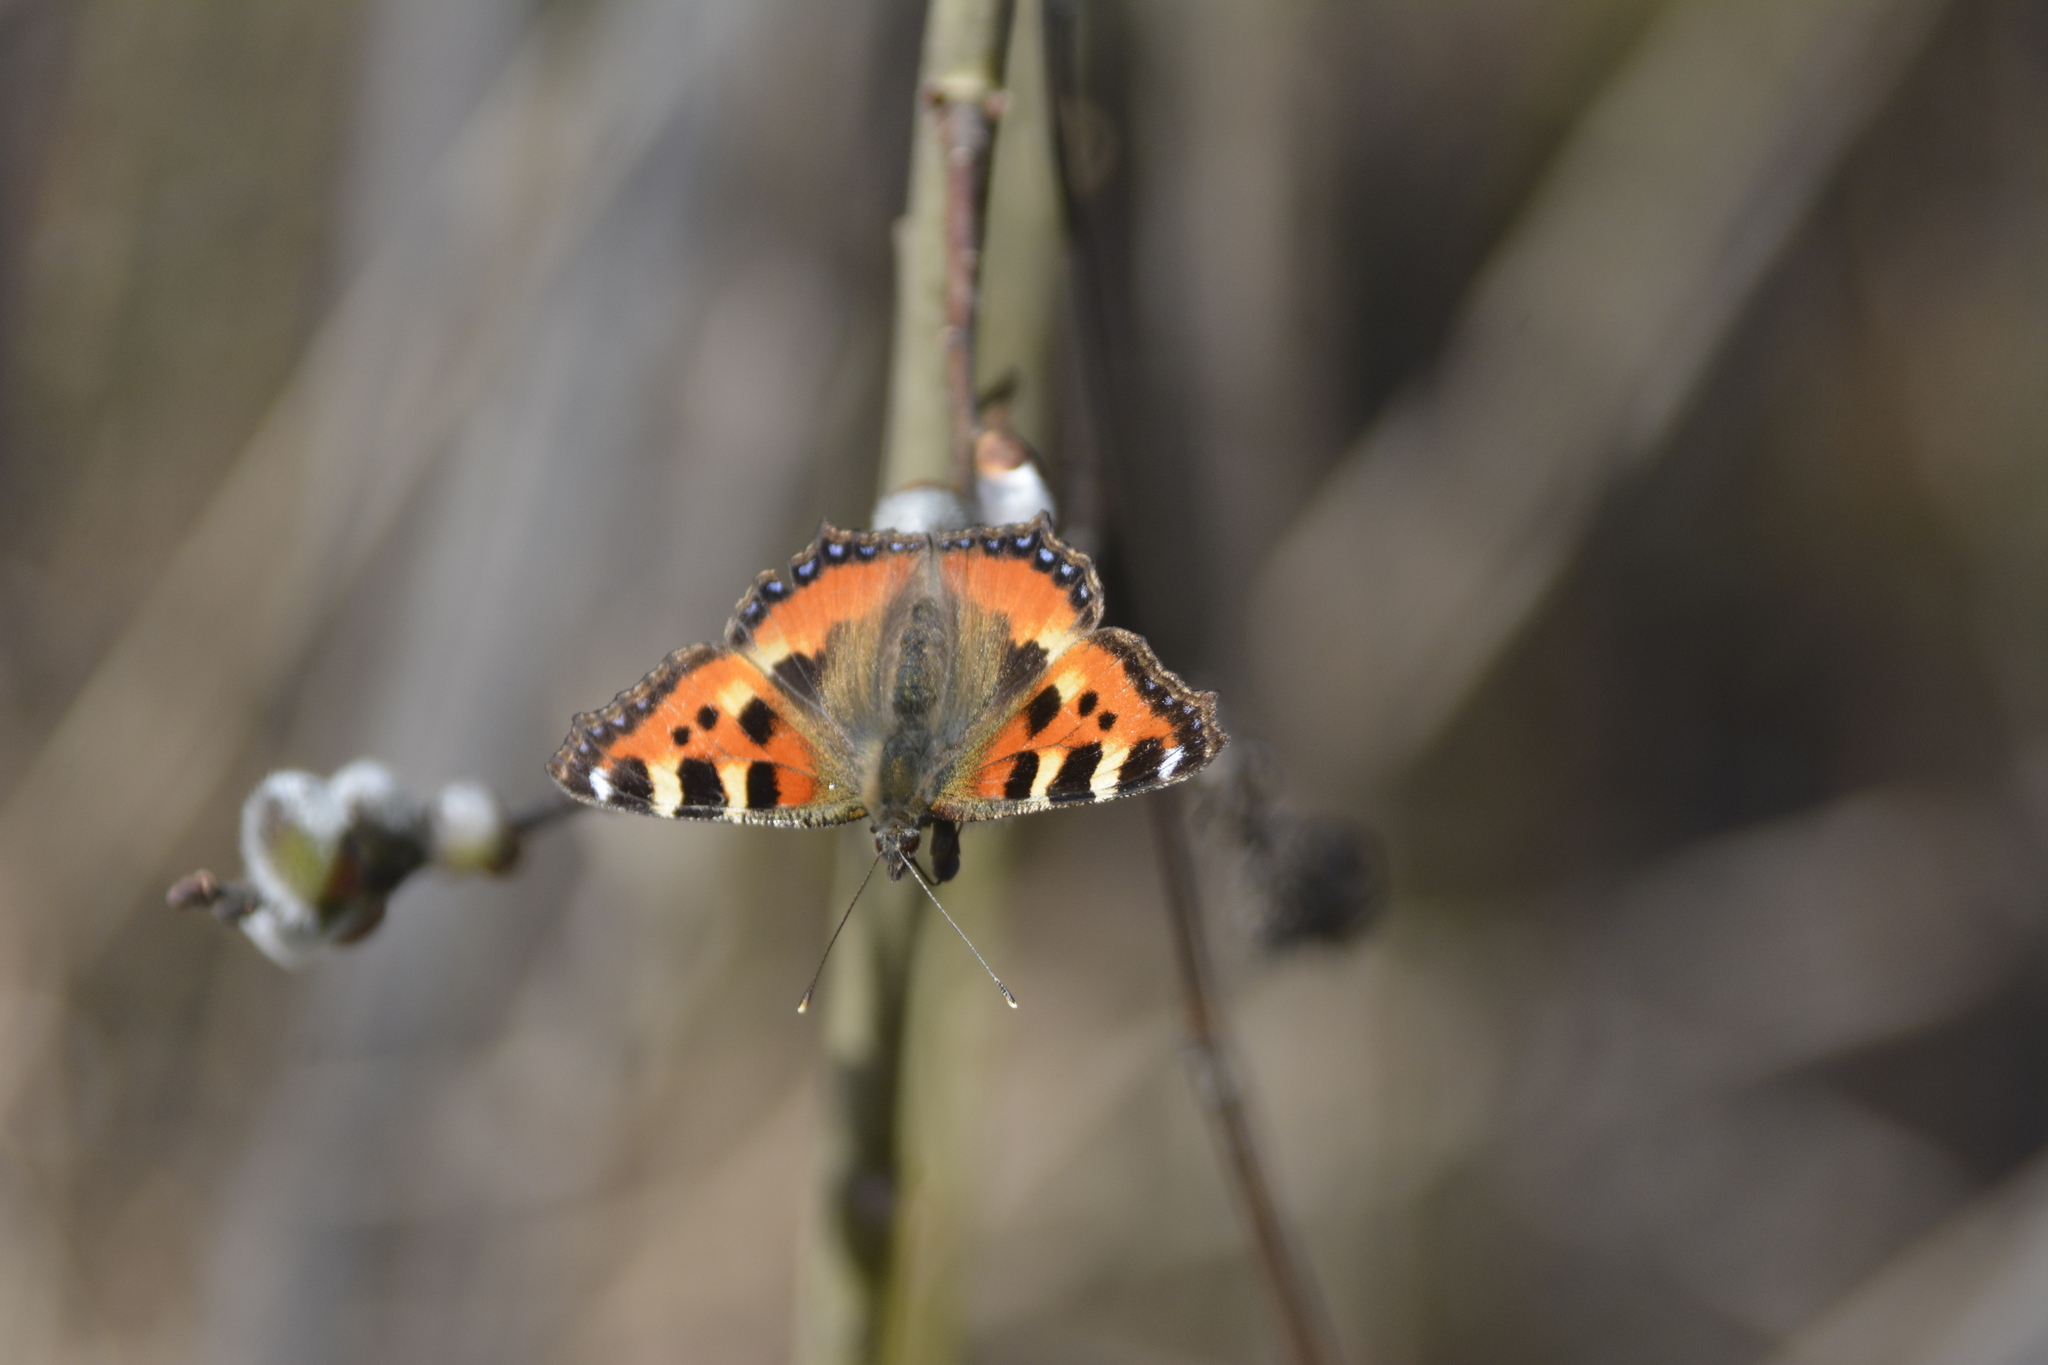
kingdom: Animalia
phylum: Arthropoda
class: Insecta
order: Lepidoptera
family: Nymphalidae
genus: Aglais
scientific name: Aglais urticae
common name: Small tortoiseshell
